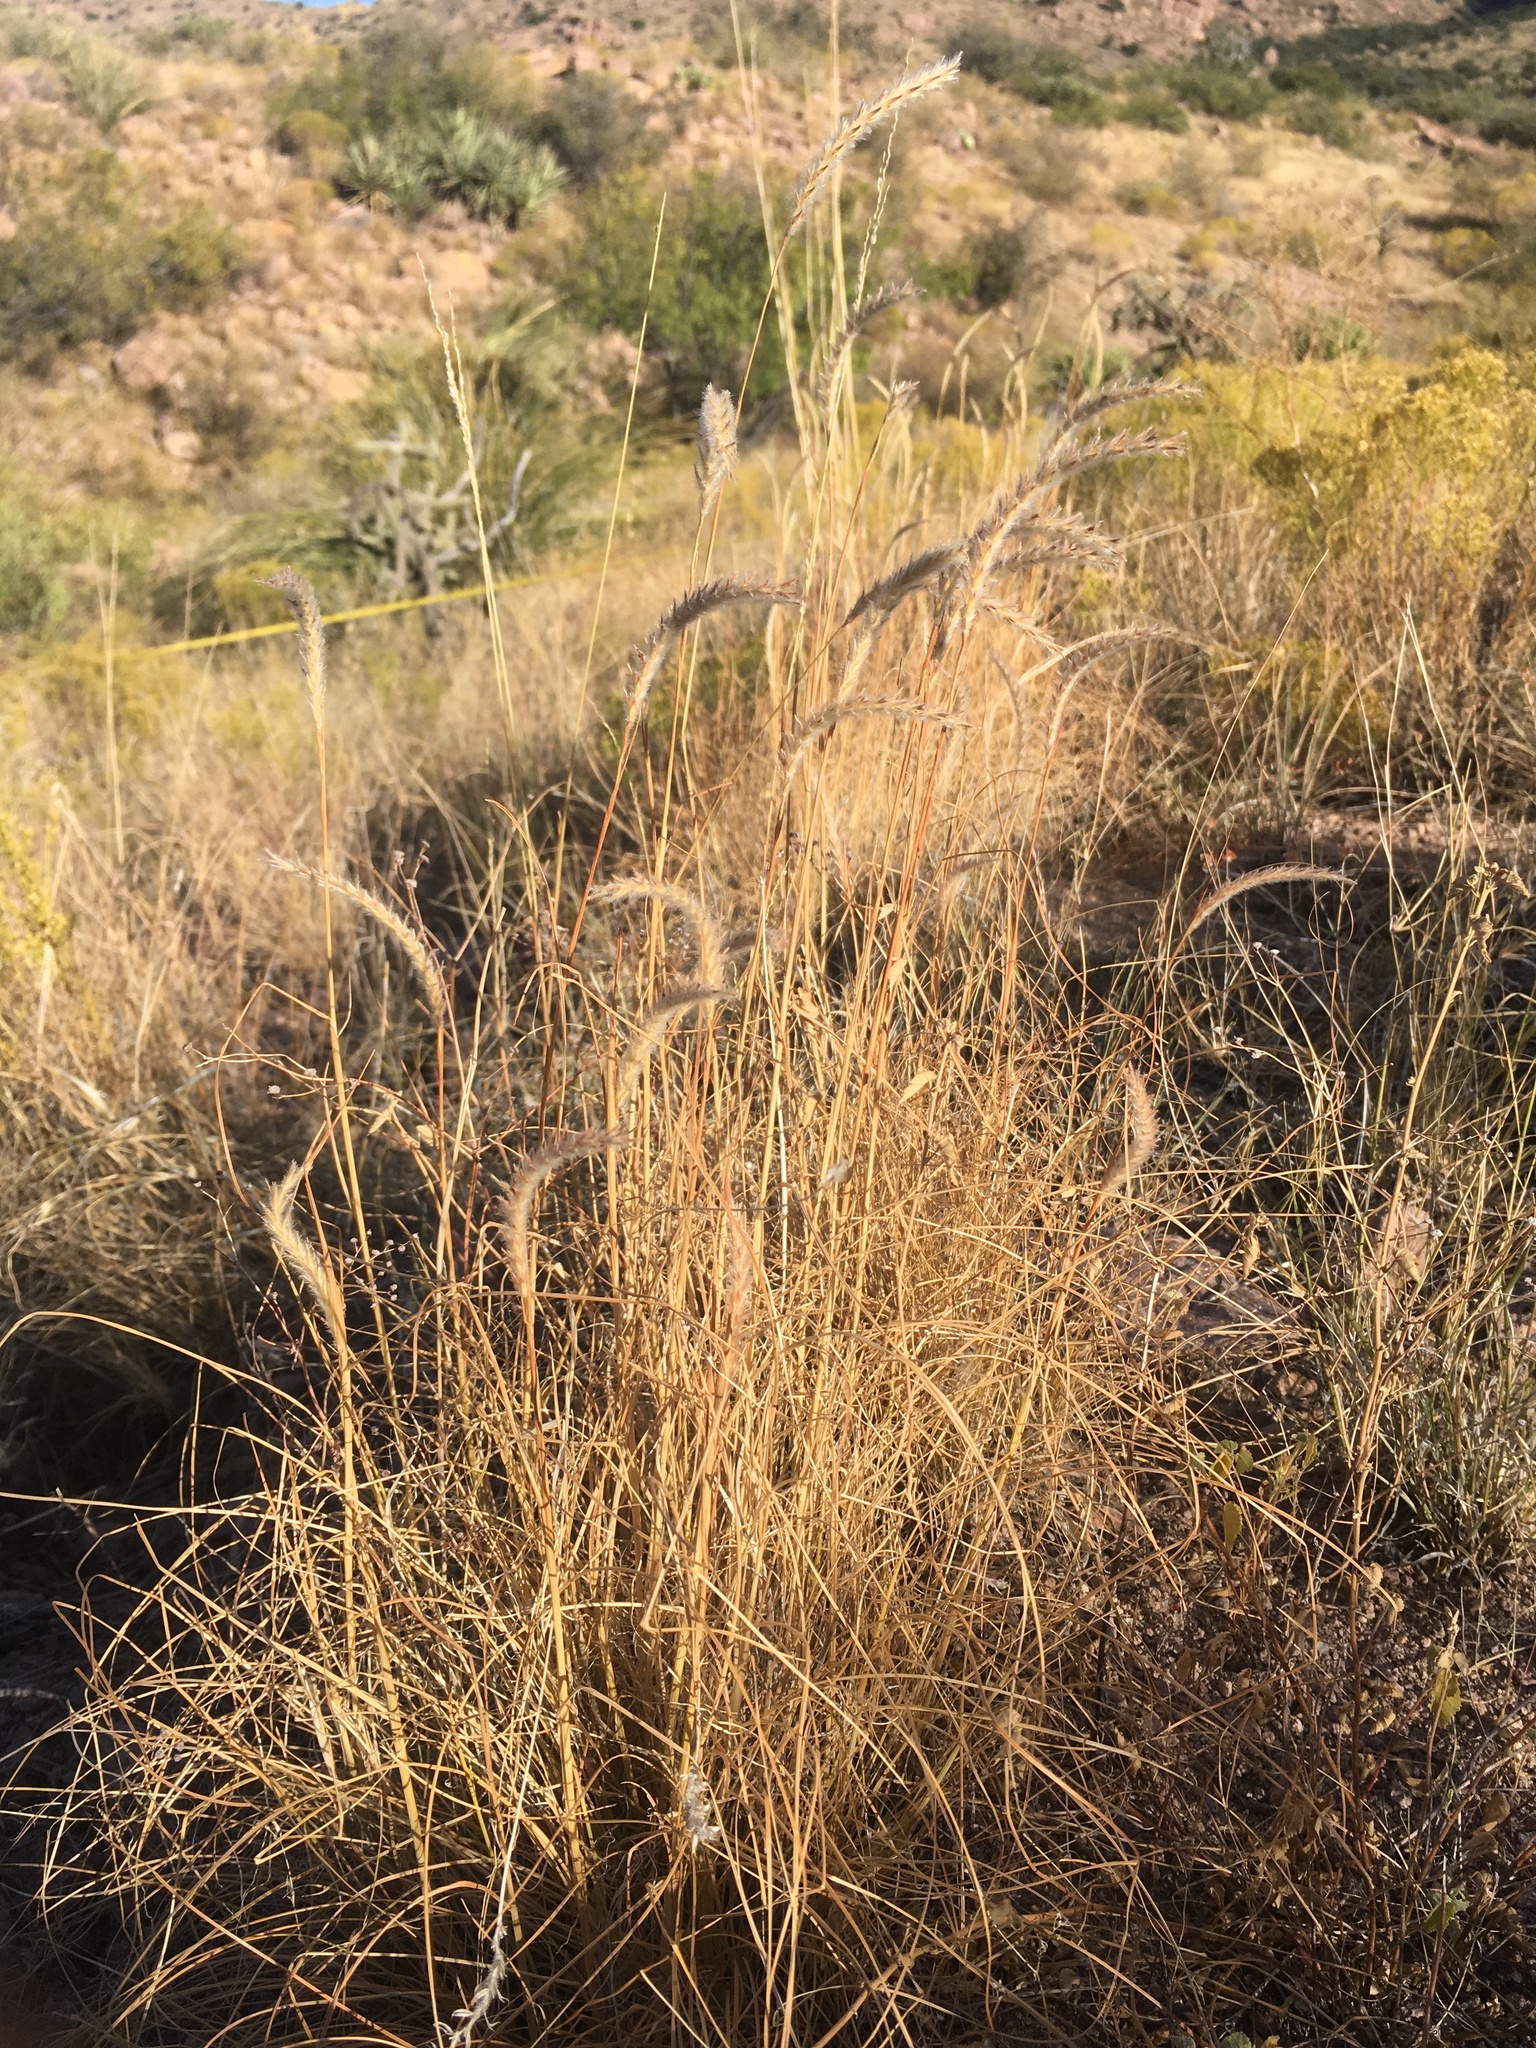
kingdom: Plantae
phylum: Tracheophyta
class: Liliopsida
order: Poales
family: Poaceae
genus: Elionurus
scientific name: Elionurus barbiculmis
